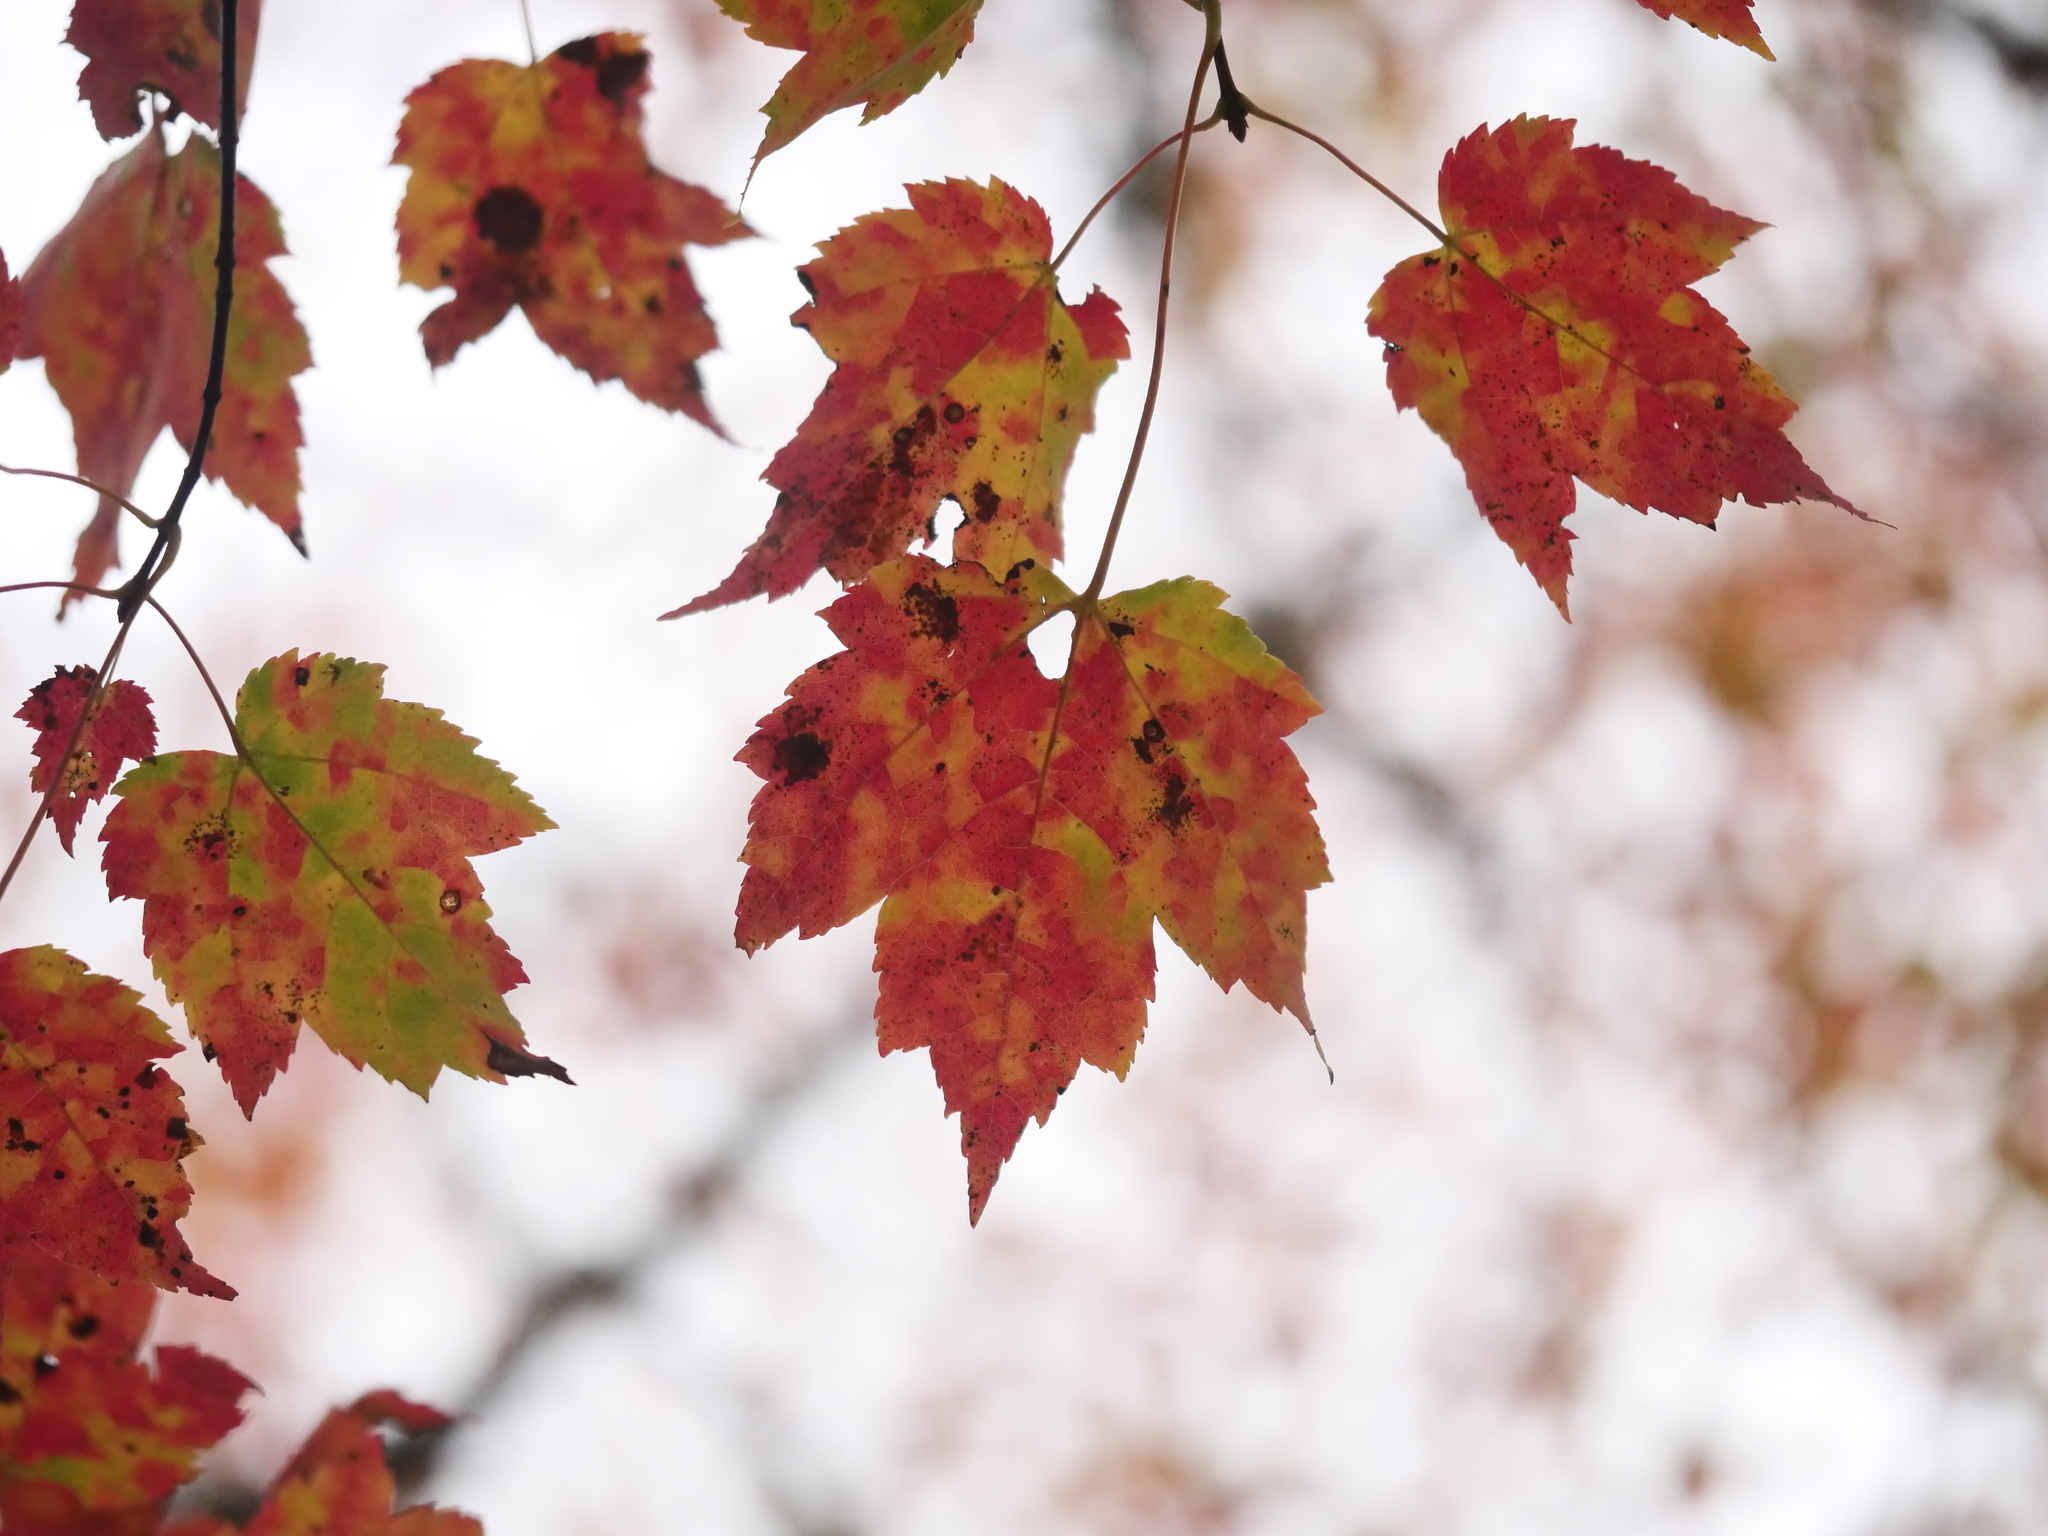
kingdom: Plantae
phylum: Tracheophyta
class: Magnoliopsida
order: Sapindales
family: Sapindaceae
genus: Acer
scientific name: Acer rubrum
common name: Red maple
